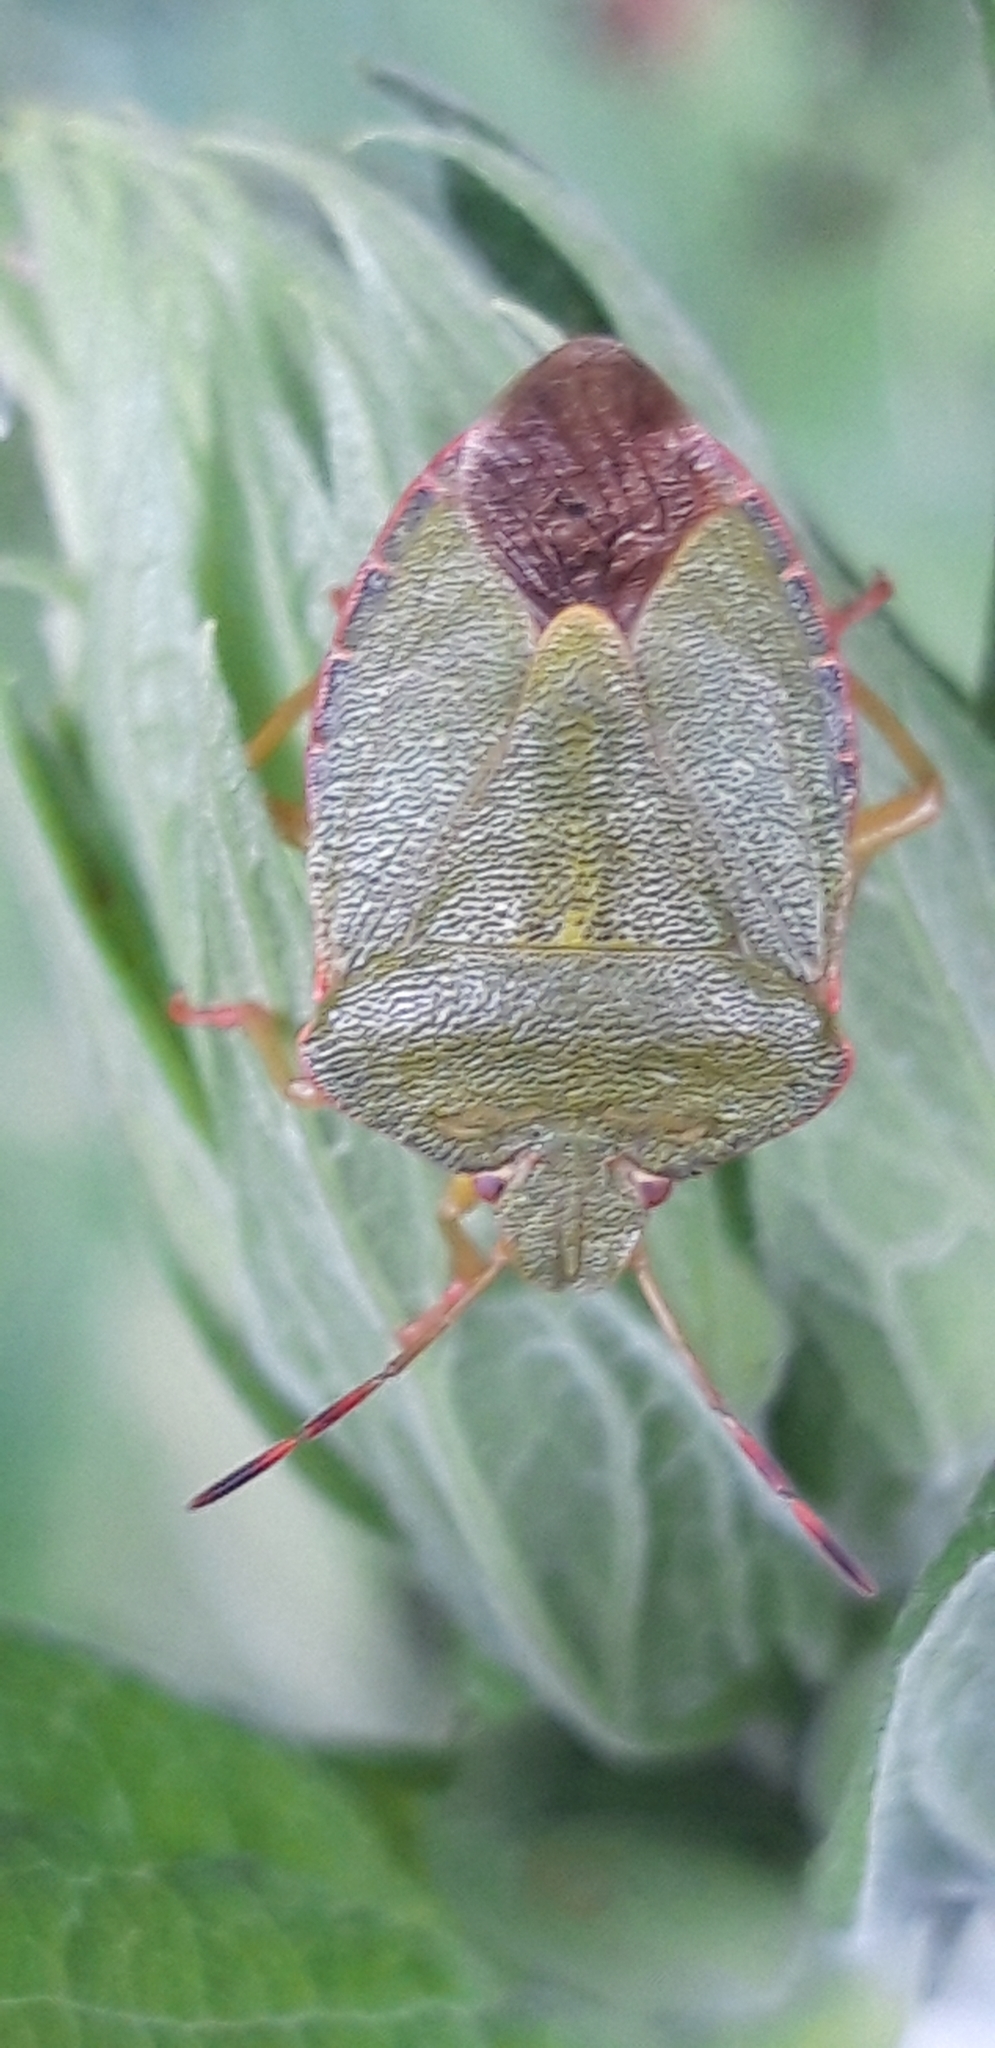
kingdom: Animalia
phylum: Arthropoda
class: Insecta
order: Hemiptera
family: Pentatomidae
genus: Palomena
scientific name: Palomena prasina
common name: Green shieldbug
